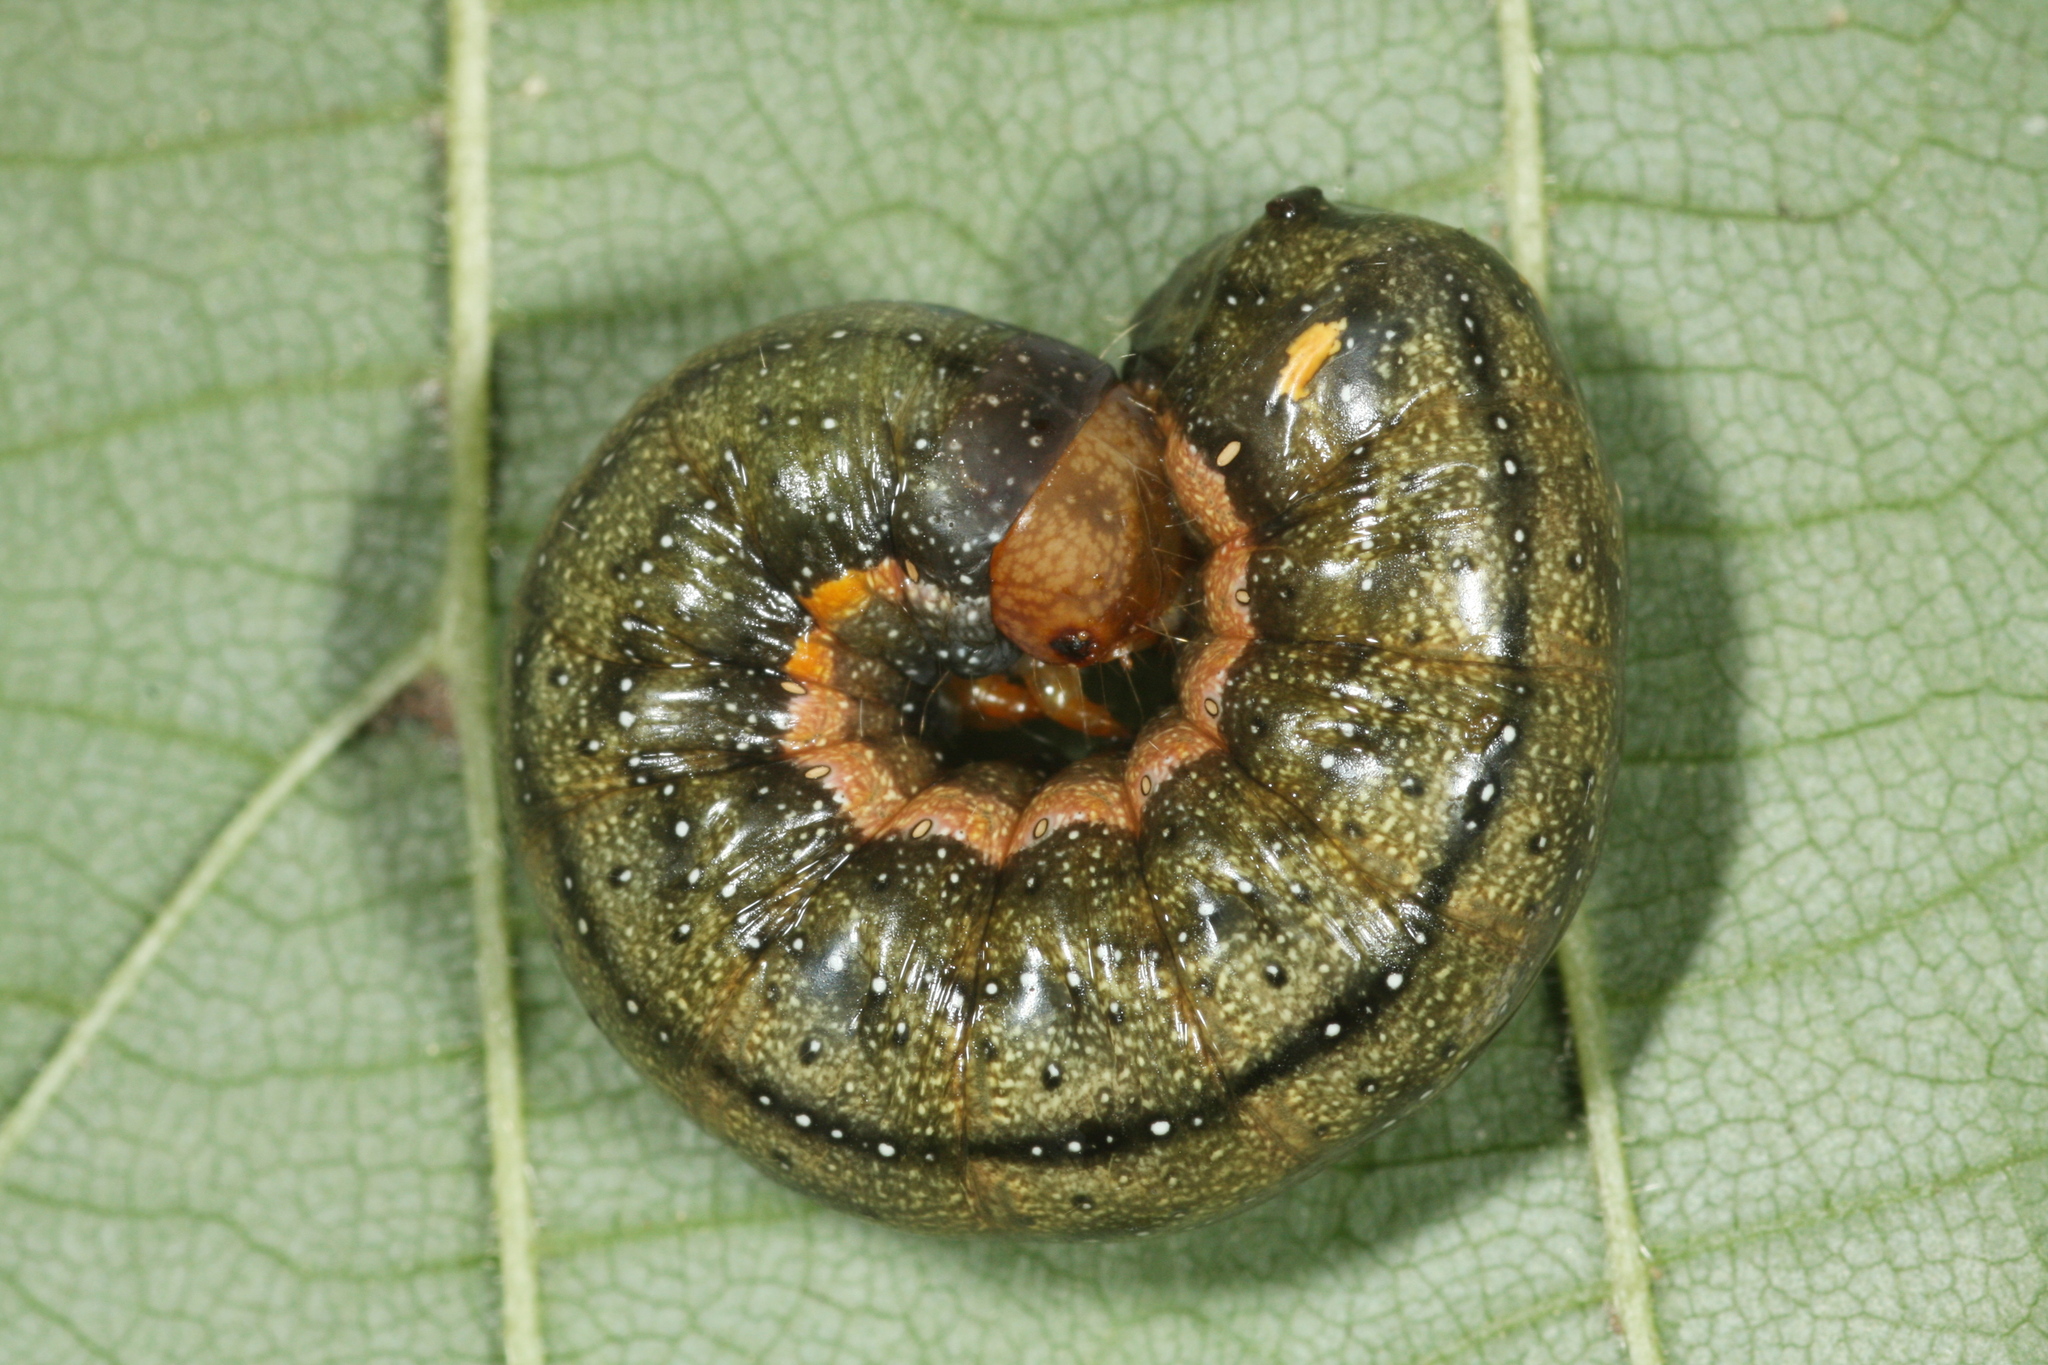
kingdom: Animalia
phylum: Arthropoda
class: Insecta
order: Lepidoptera
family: Noctuidae
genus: Trachea
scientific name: Trachea atriplicis
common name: Orache moth
